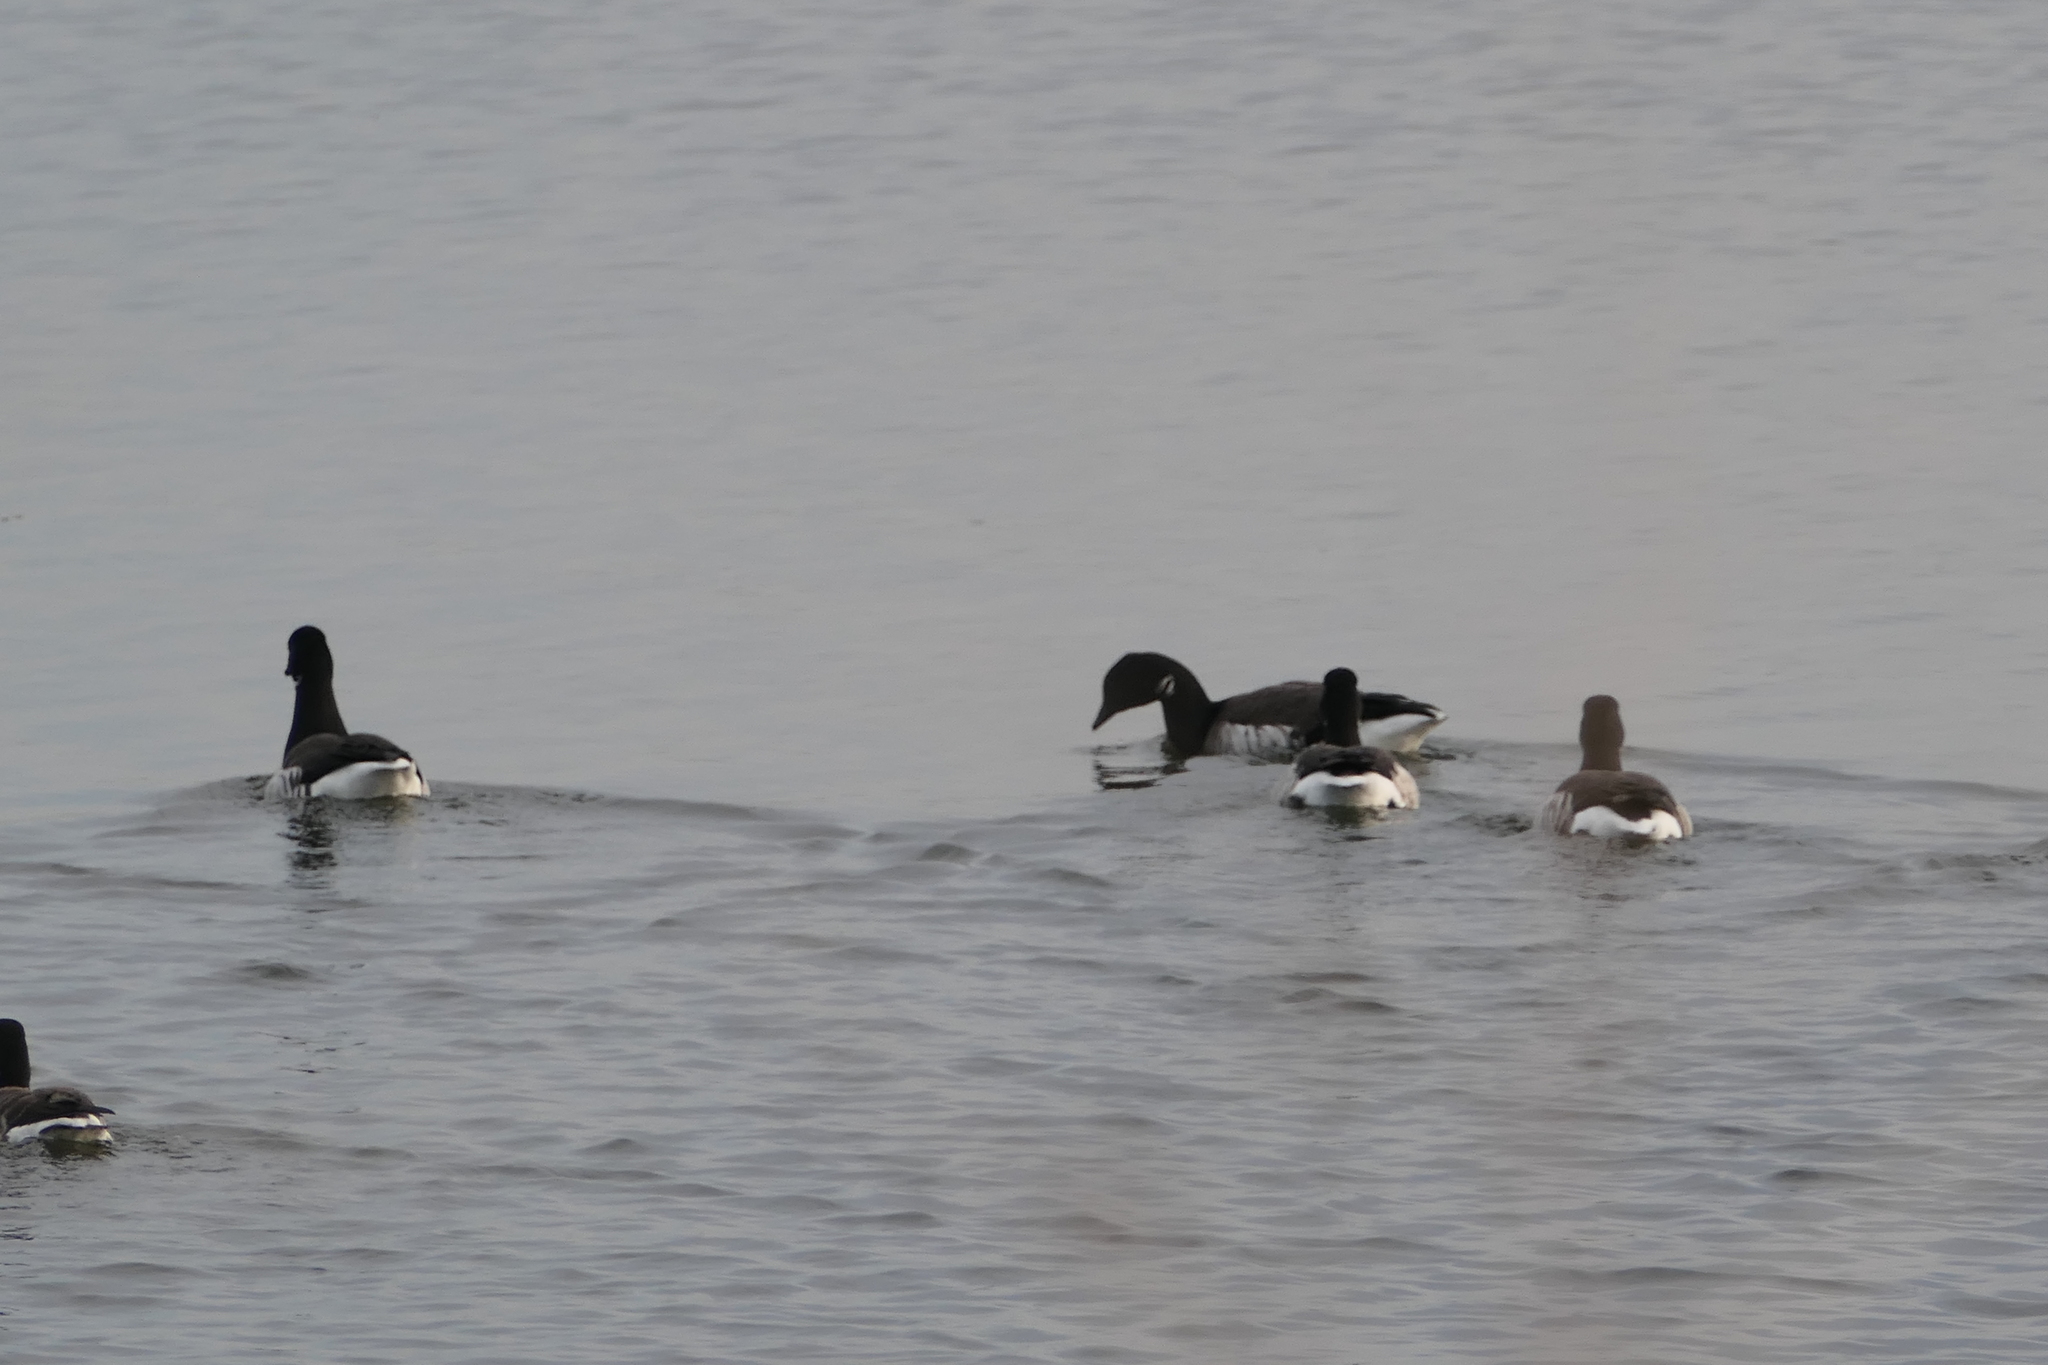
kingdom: Animalia
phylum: Chordata
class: Aves
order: Anseriformes
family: Anatidae
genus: Branta
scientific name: Branta bernicla
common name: Brant goose
